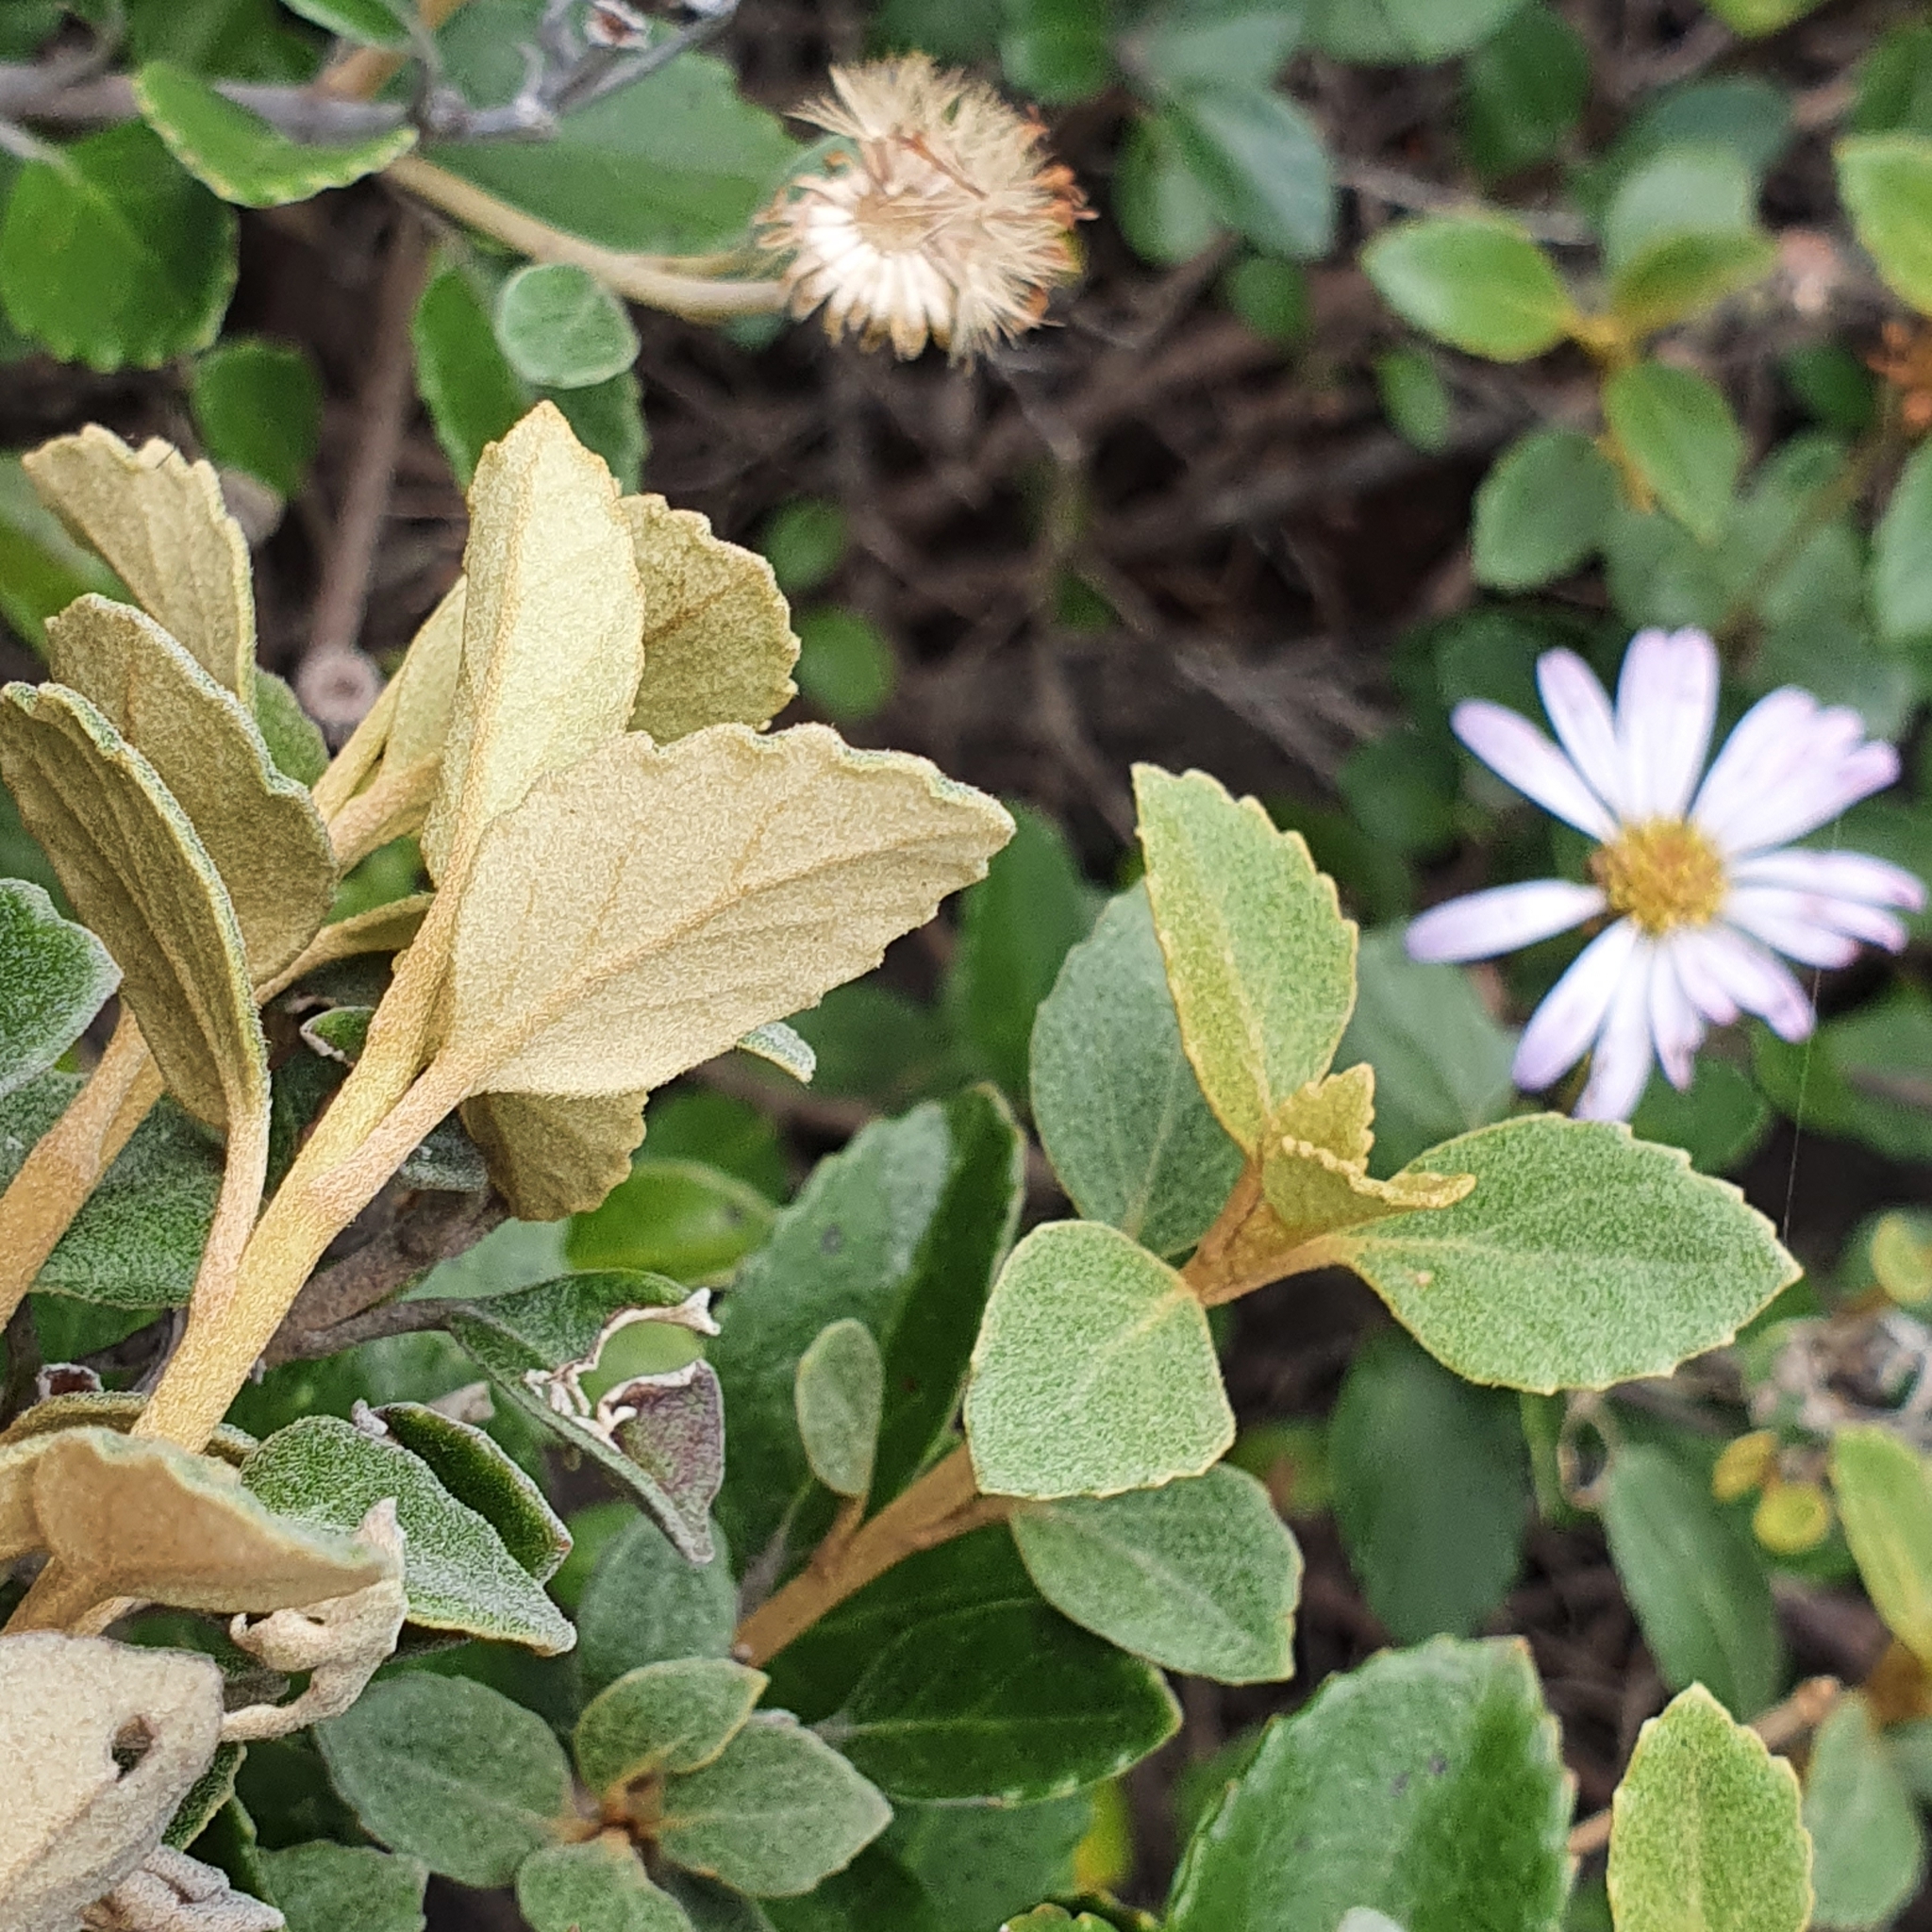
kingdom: Plantae
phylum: Tracheophyta
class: Magnoliopsida
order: Asterales
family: Asteraceae
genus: Olearia
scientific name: Olearia tomentosa
